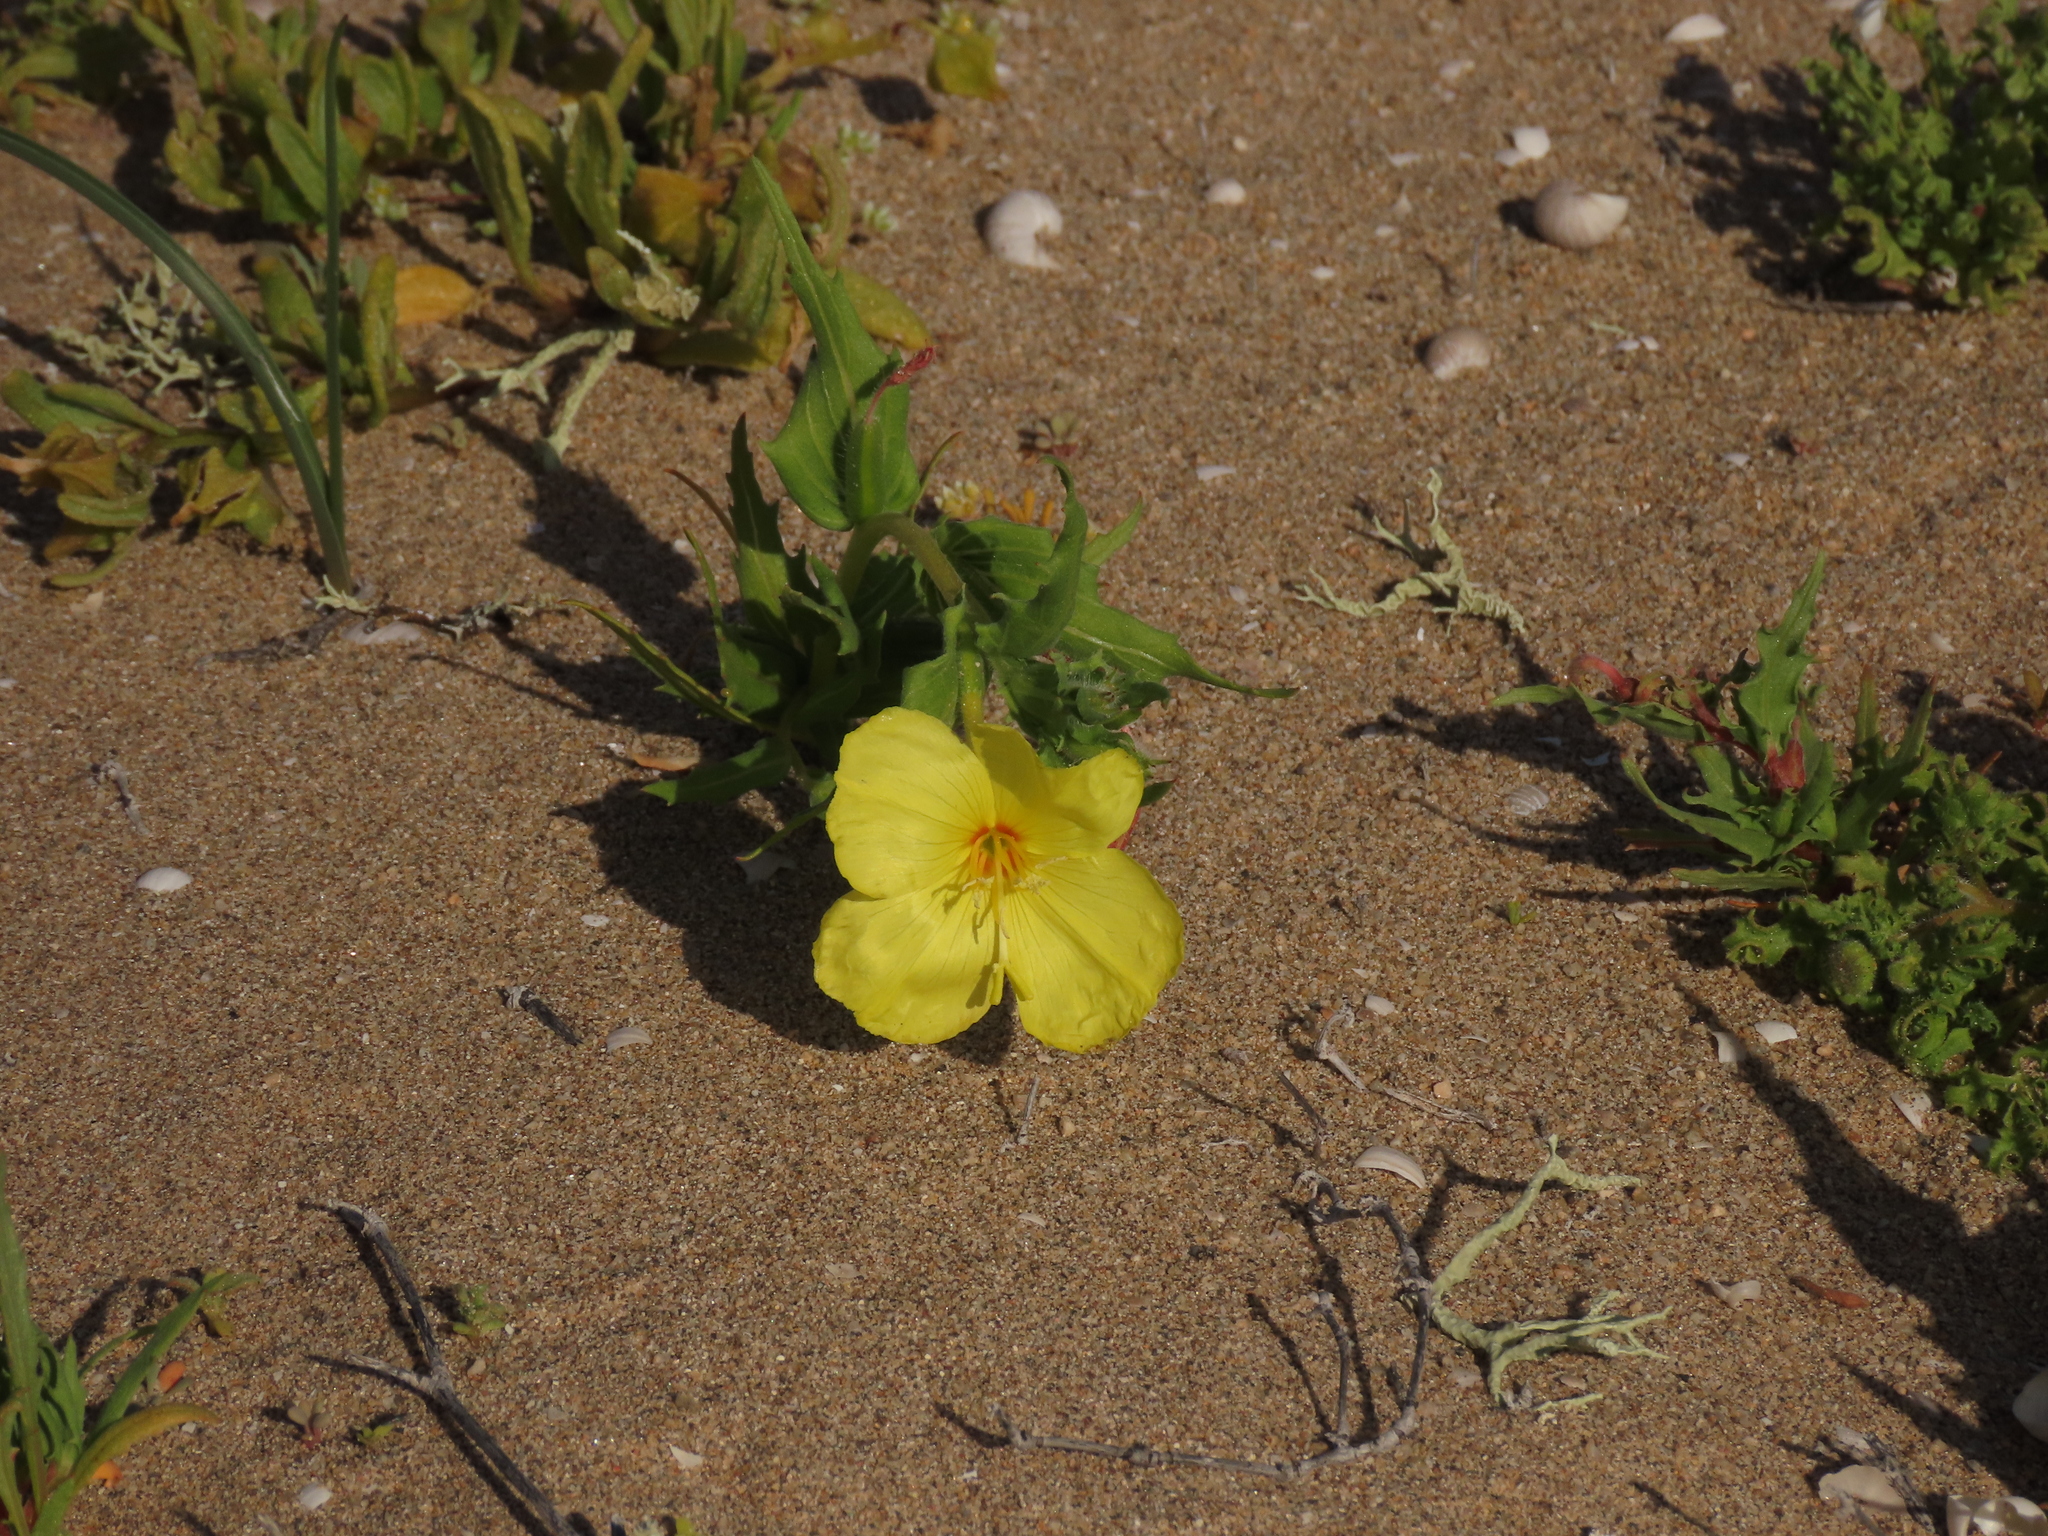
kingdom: Plantae
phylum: Tracheophyta
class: Magnoliopsida
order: Myrtales
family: Onagraceae
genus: Oenothera
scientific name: Oenothera coquimbensis
